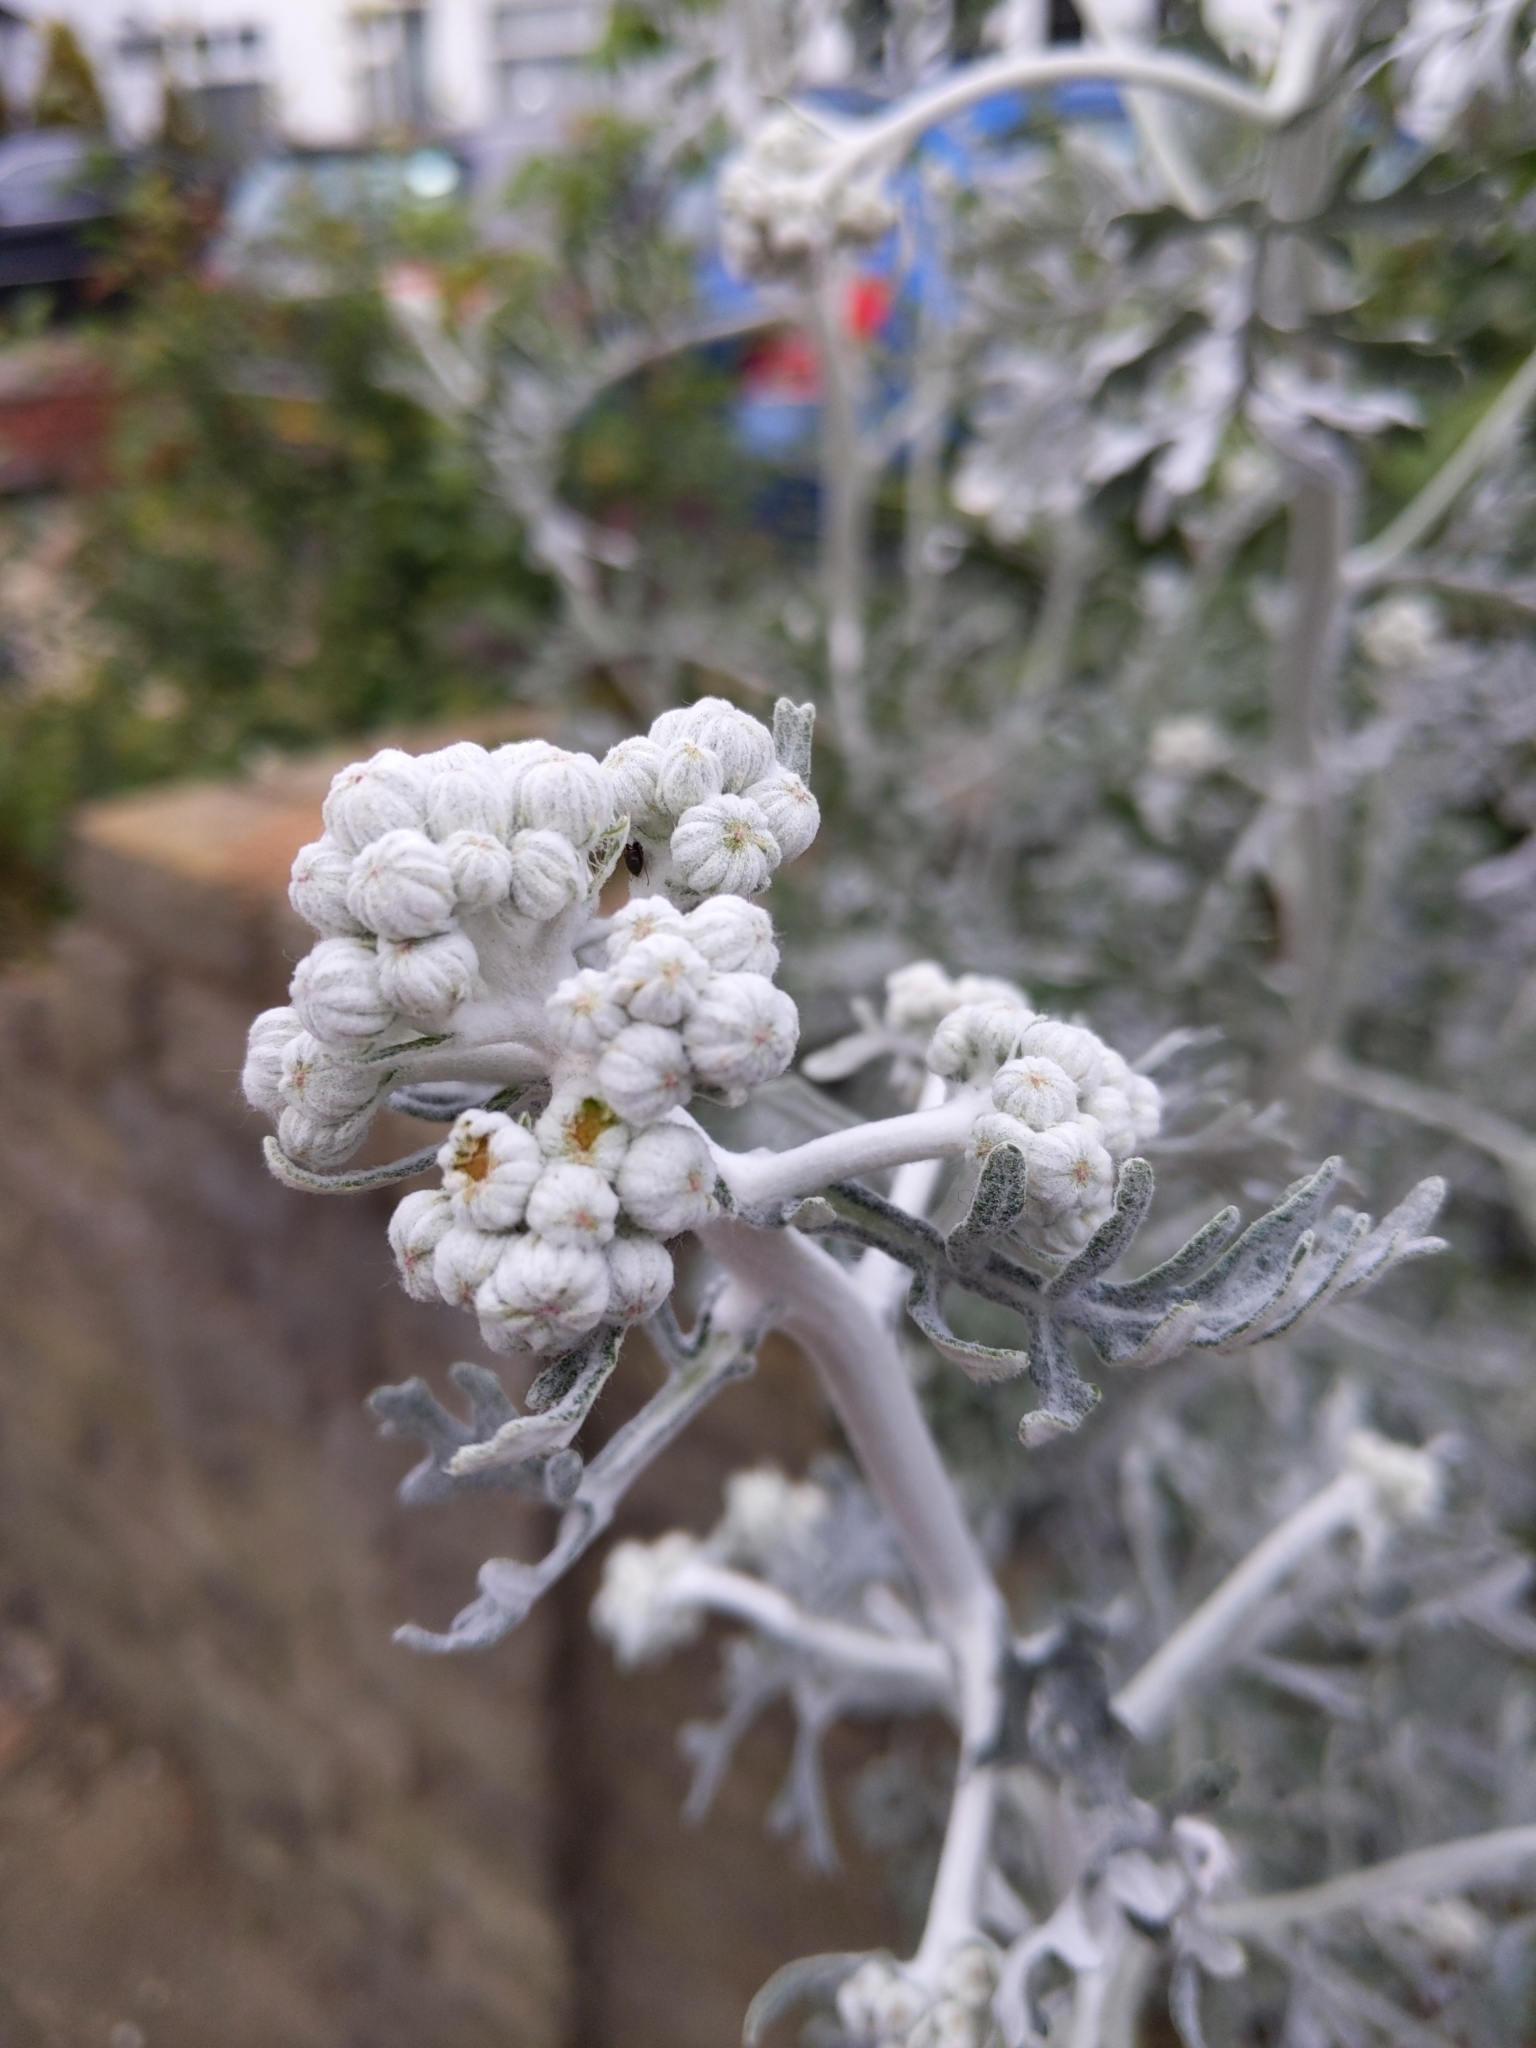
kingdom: Plantae
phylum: Tracheophyta
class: Magnoliopsida
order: Asterales
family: Asteraceae
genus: Jacobaea
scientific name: Jacobaea maritima
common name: Silver ragwort
